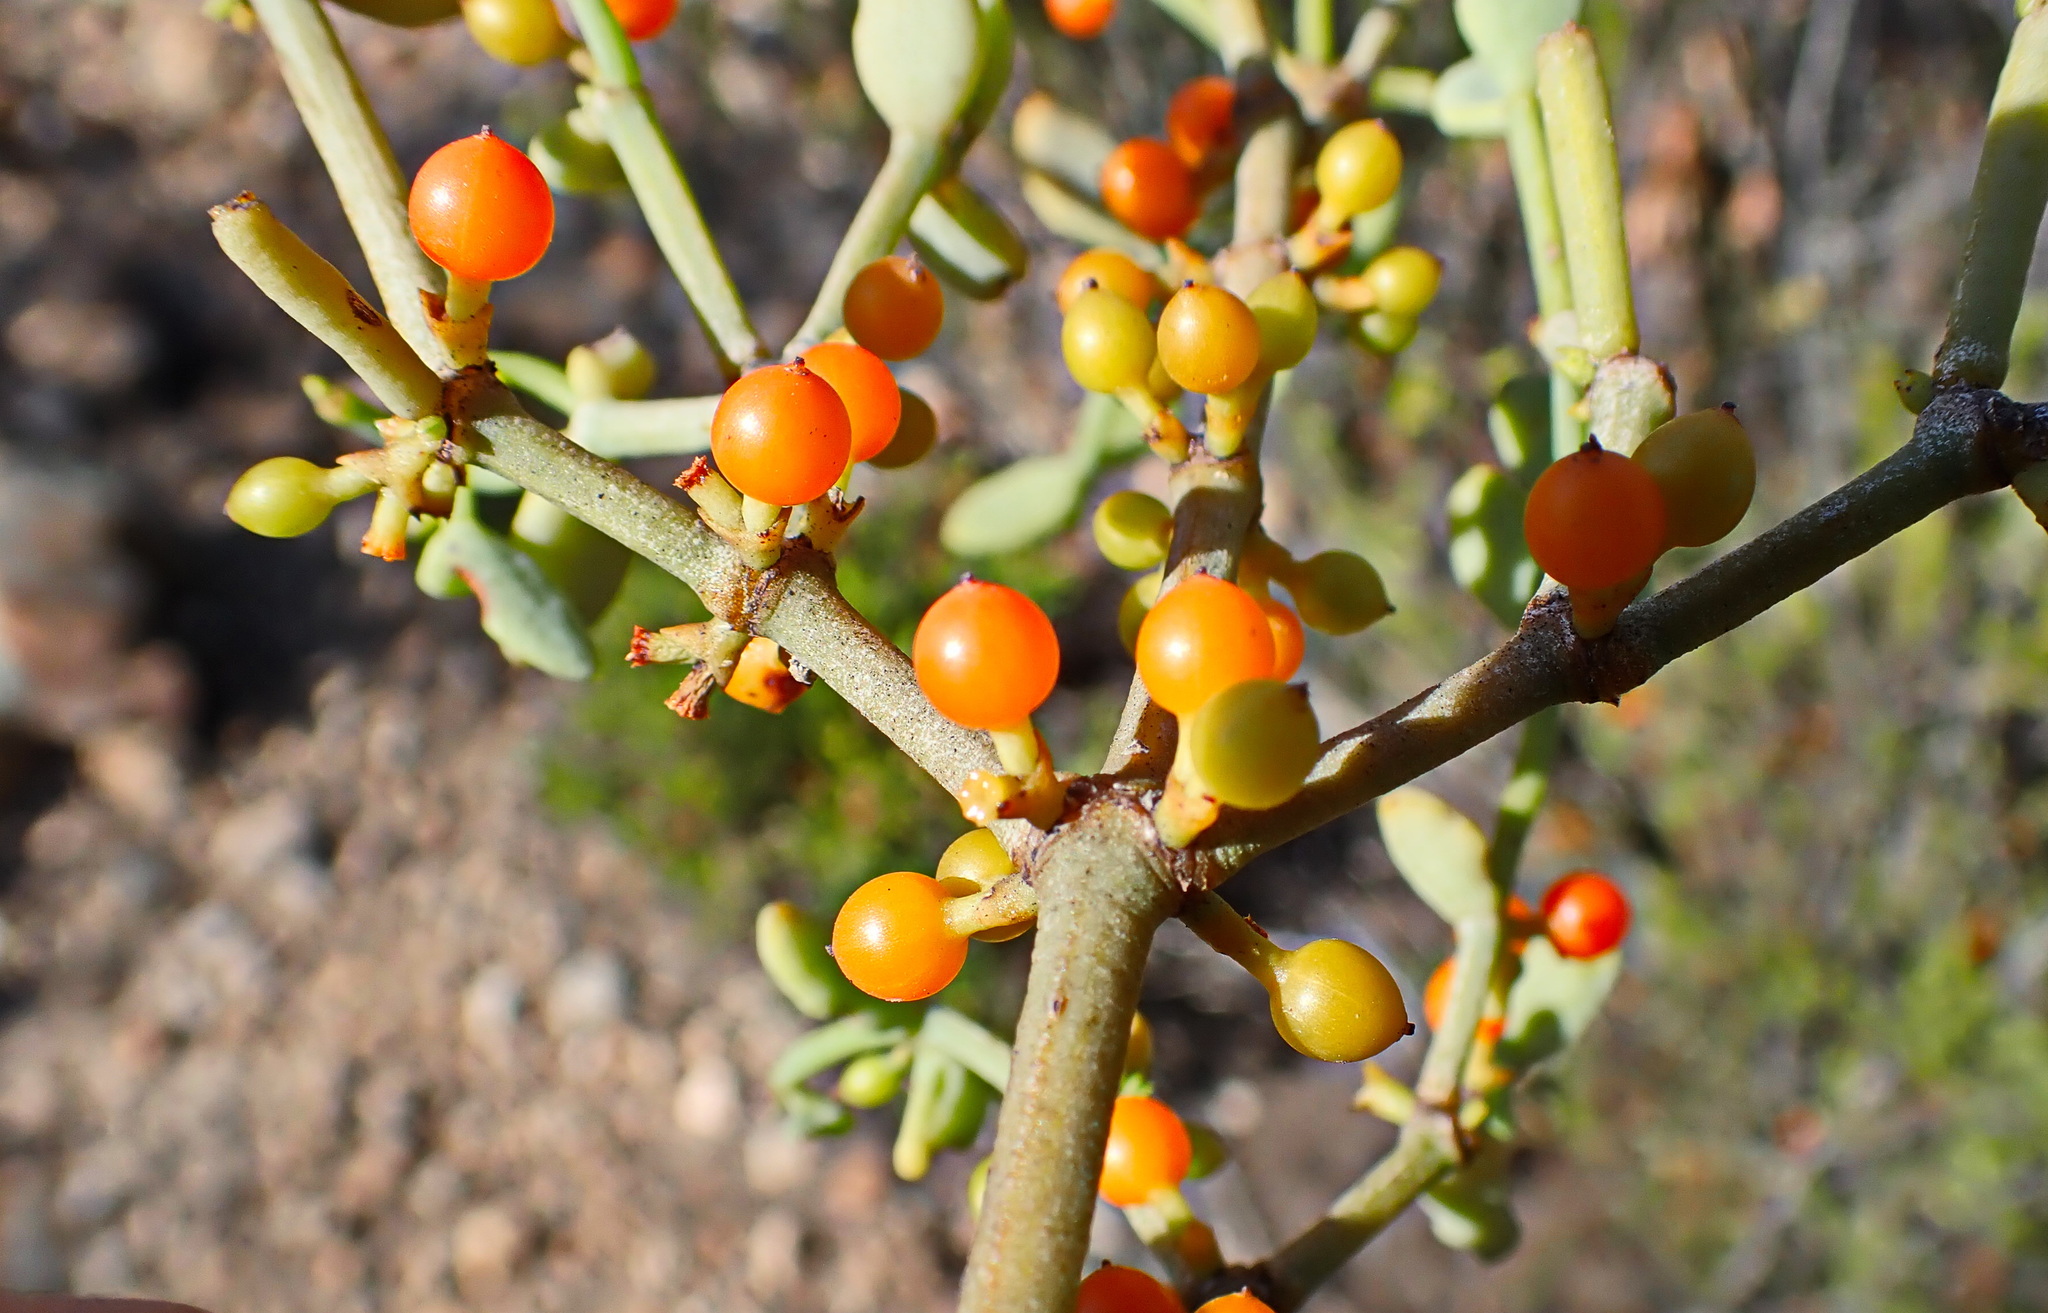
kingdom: Plantae
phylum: Tracheophyta
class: Magnoliopsida
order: Santalales
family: Viscaceae
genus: Viscum
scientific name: Viscum rotundifolium
